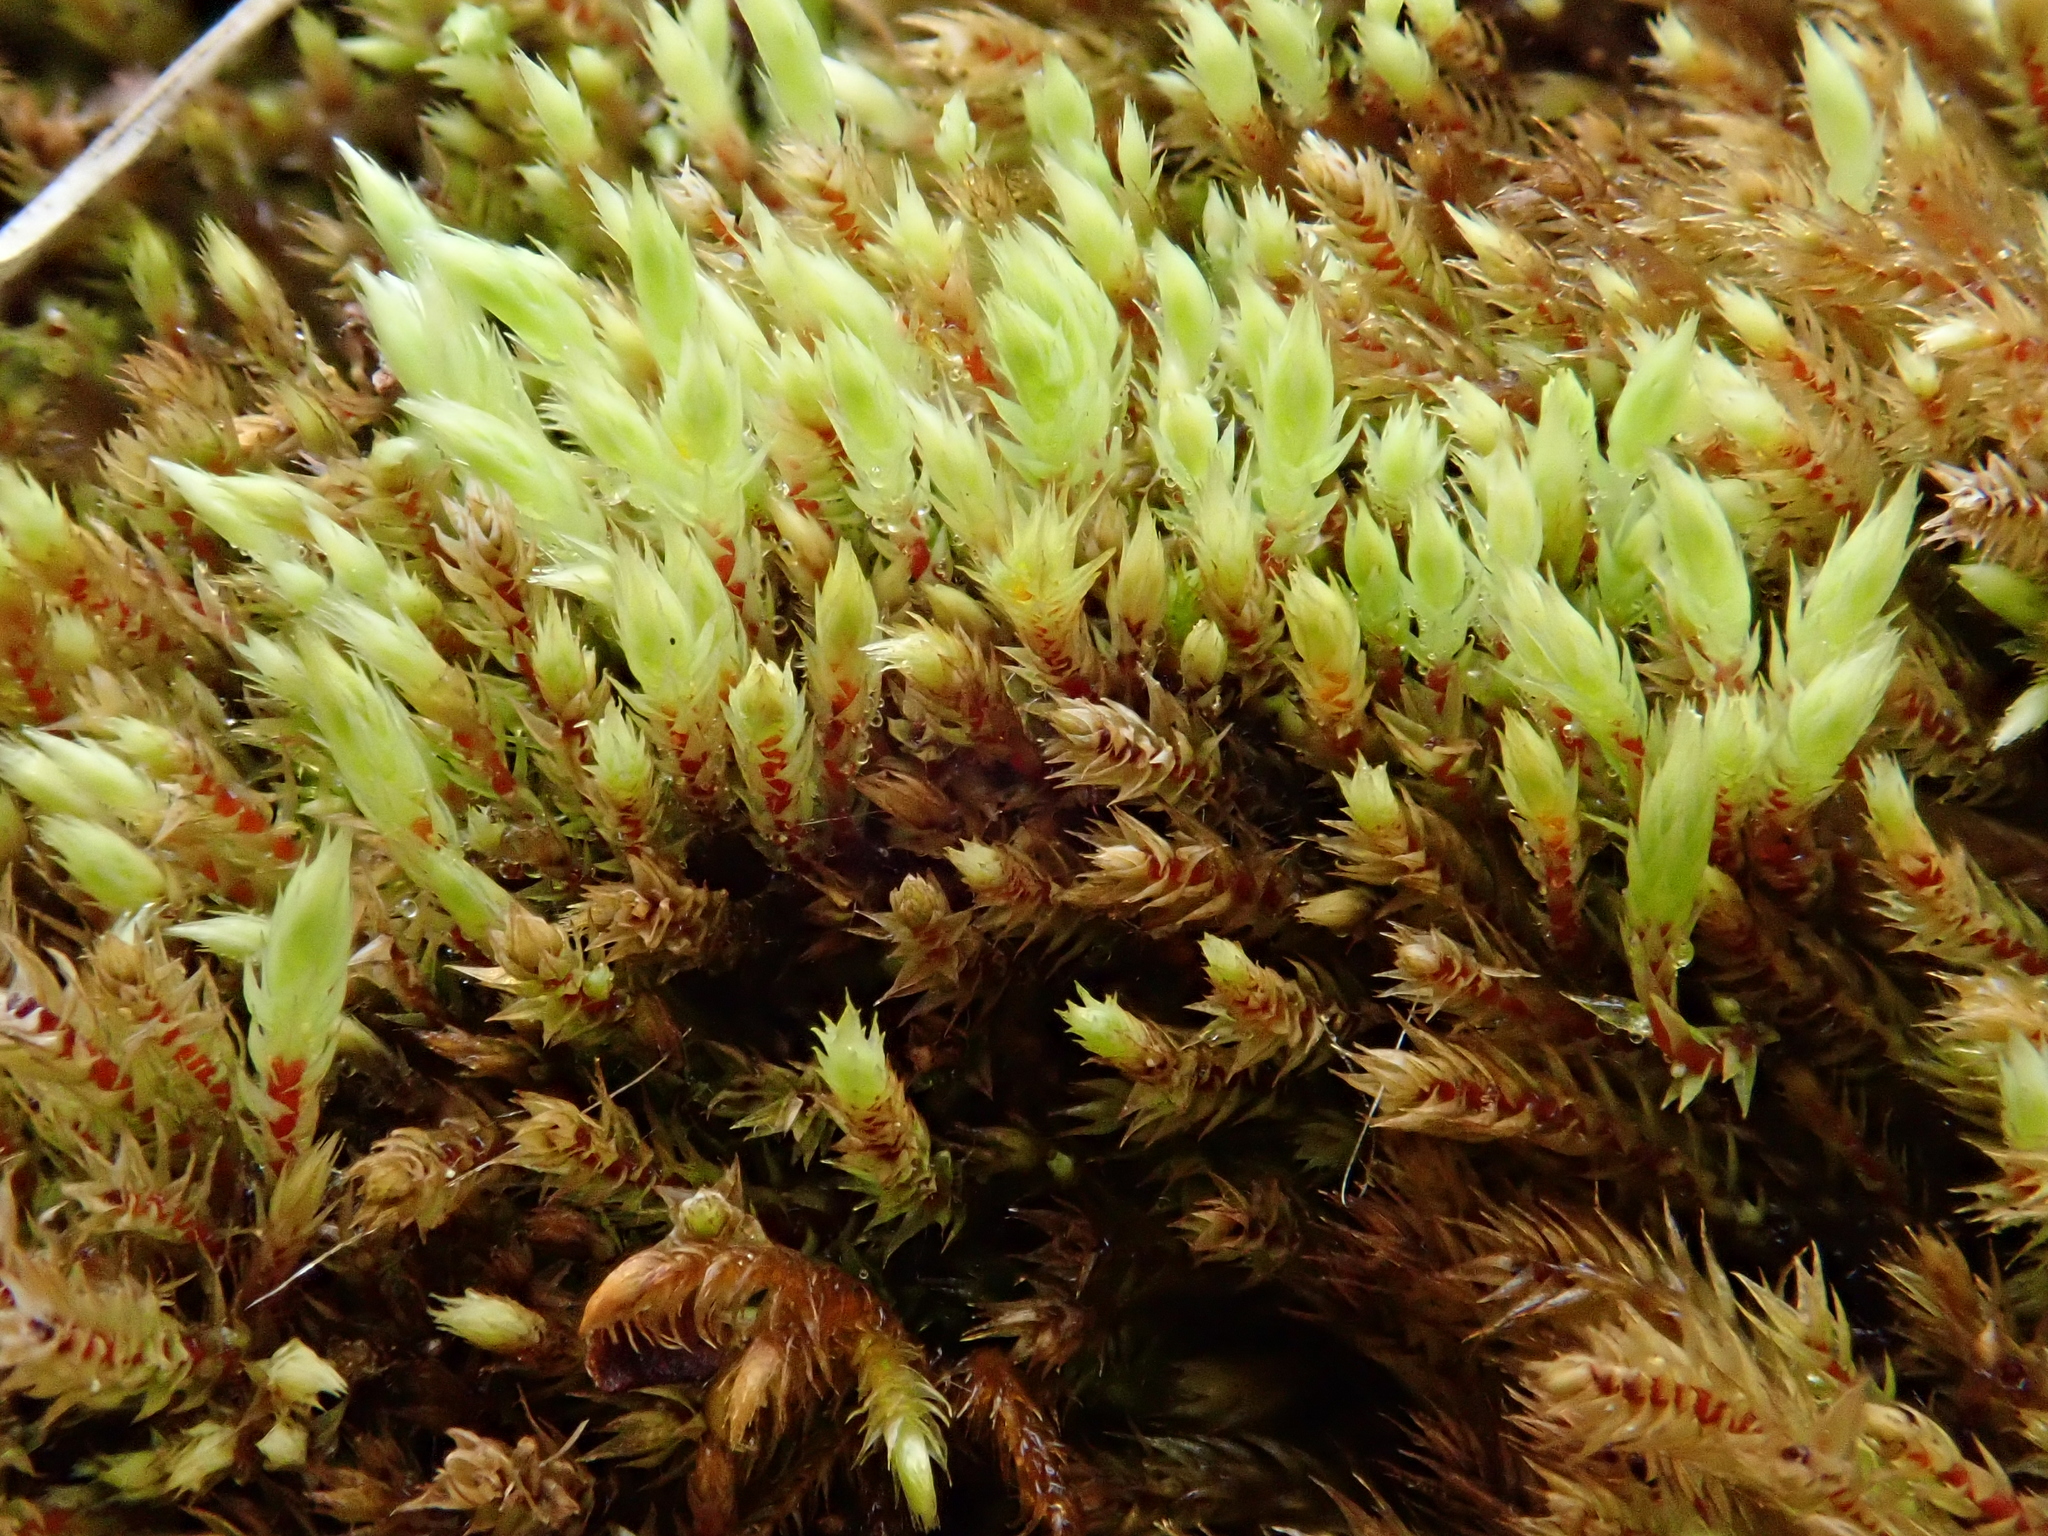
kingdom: Plantae
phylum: Bryophyta
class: Bryopsida
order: Bartramiales
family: Bartramiaceae
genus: Philonotis
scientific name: Philonotis marchica
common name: Bog apple moss
